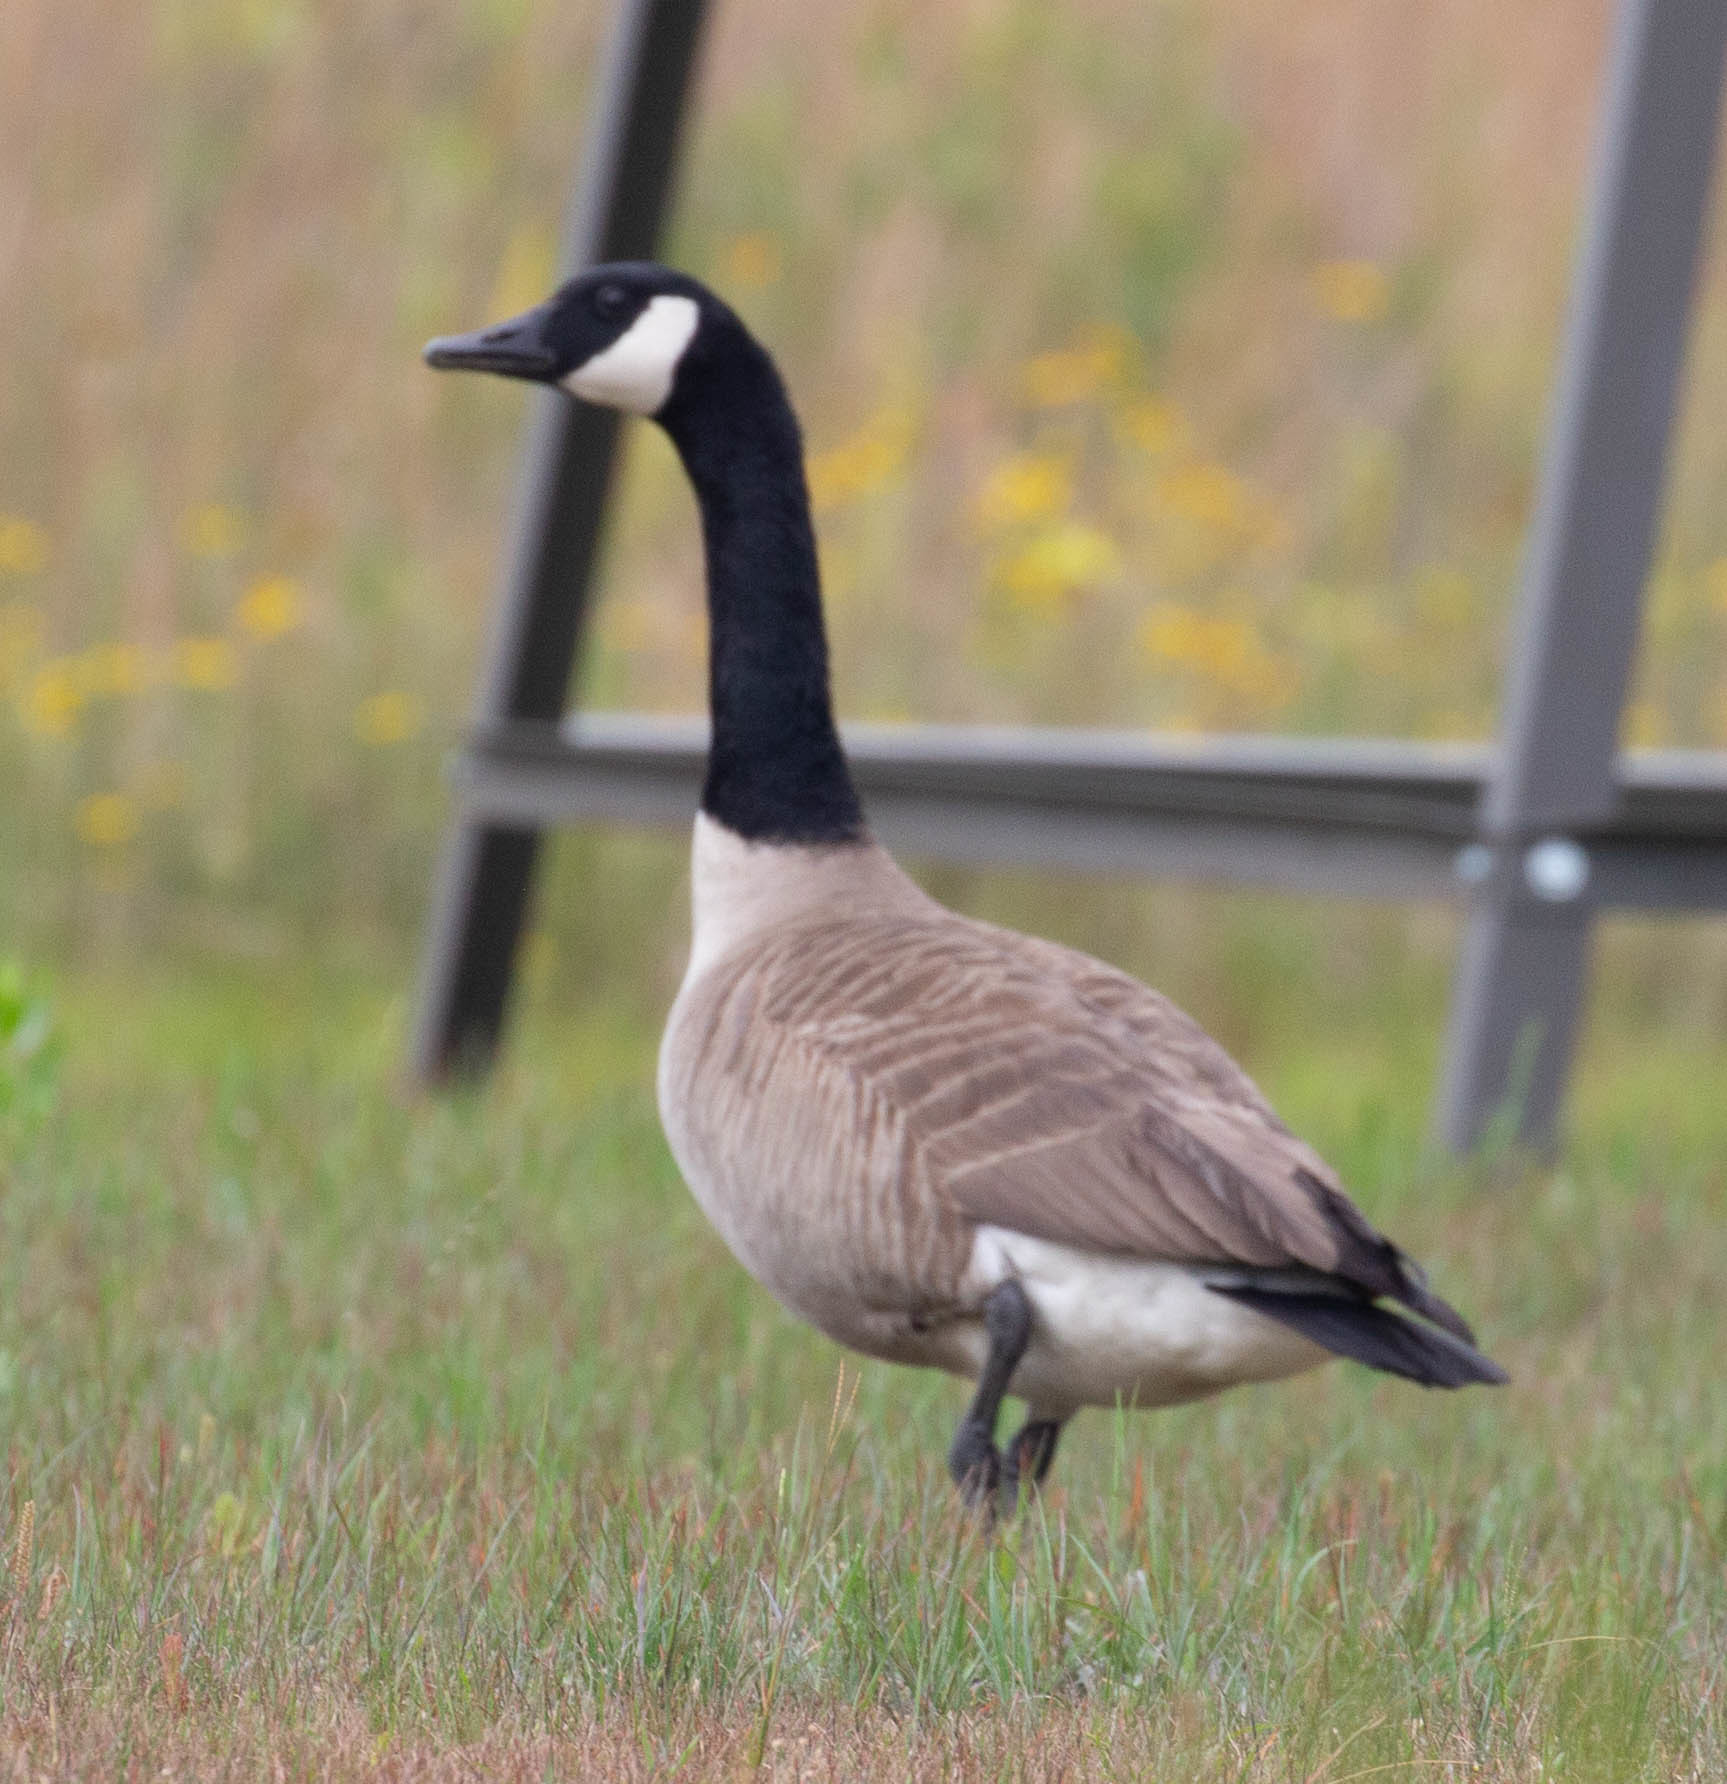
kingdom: Animalia
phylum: Chordata
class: Aves
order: Anseriformes
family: Anatidae
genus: Branta
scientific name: Branta canadensis
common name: Canada goose
